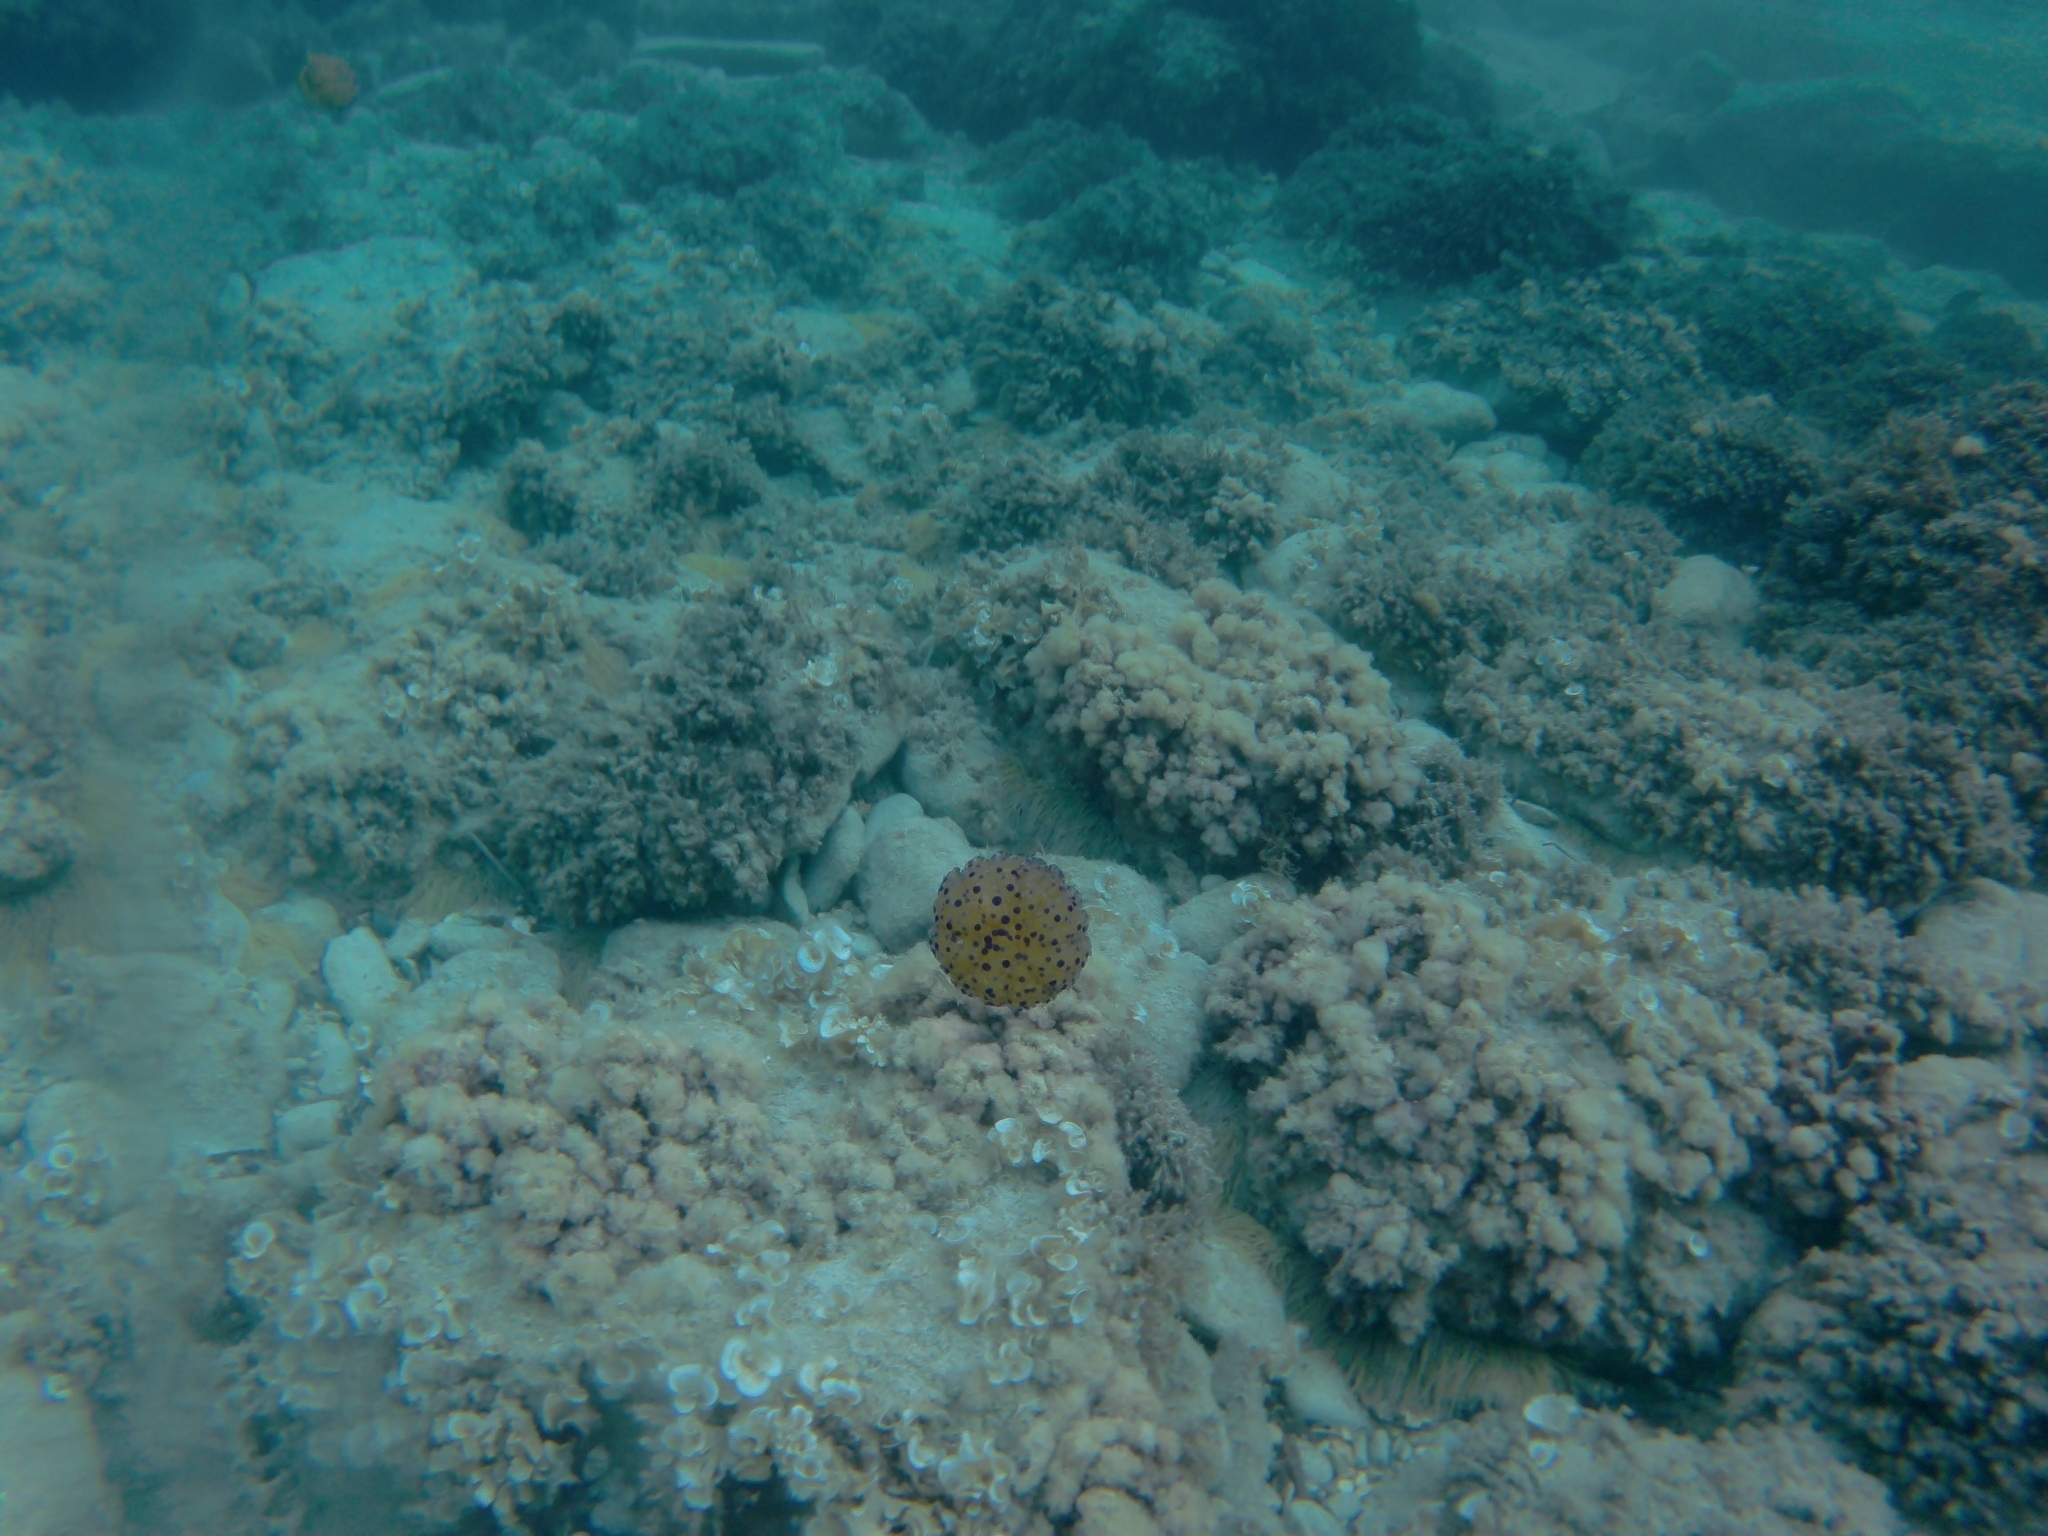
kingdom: Animalia
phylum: Cnidaria
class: Scyphozoa
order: Rhizostomeae
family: Cepheidae
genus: Cotylorhiza
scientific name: Cotylorhiza tuberculata
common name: Mediterranean jelly
